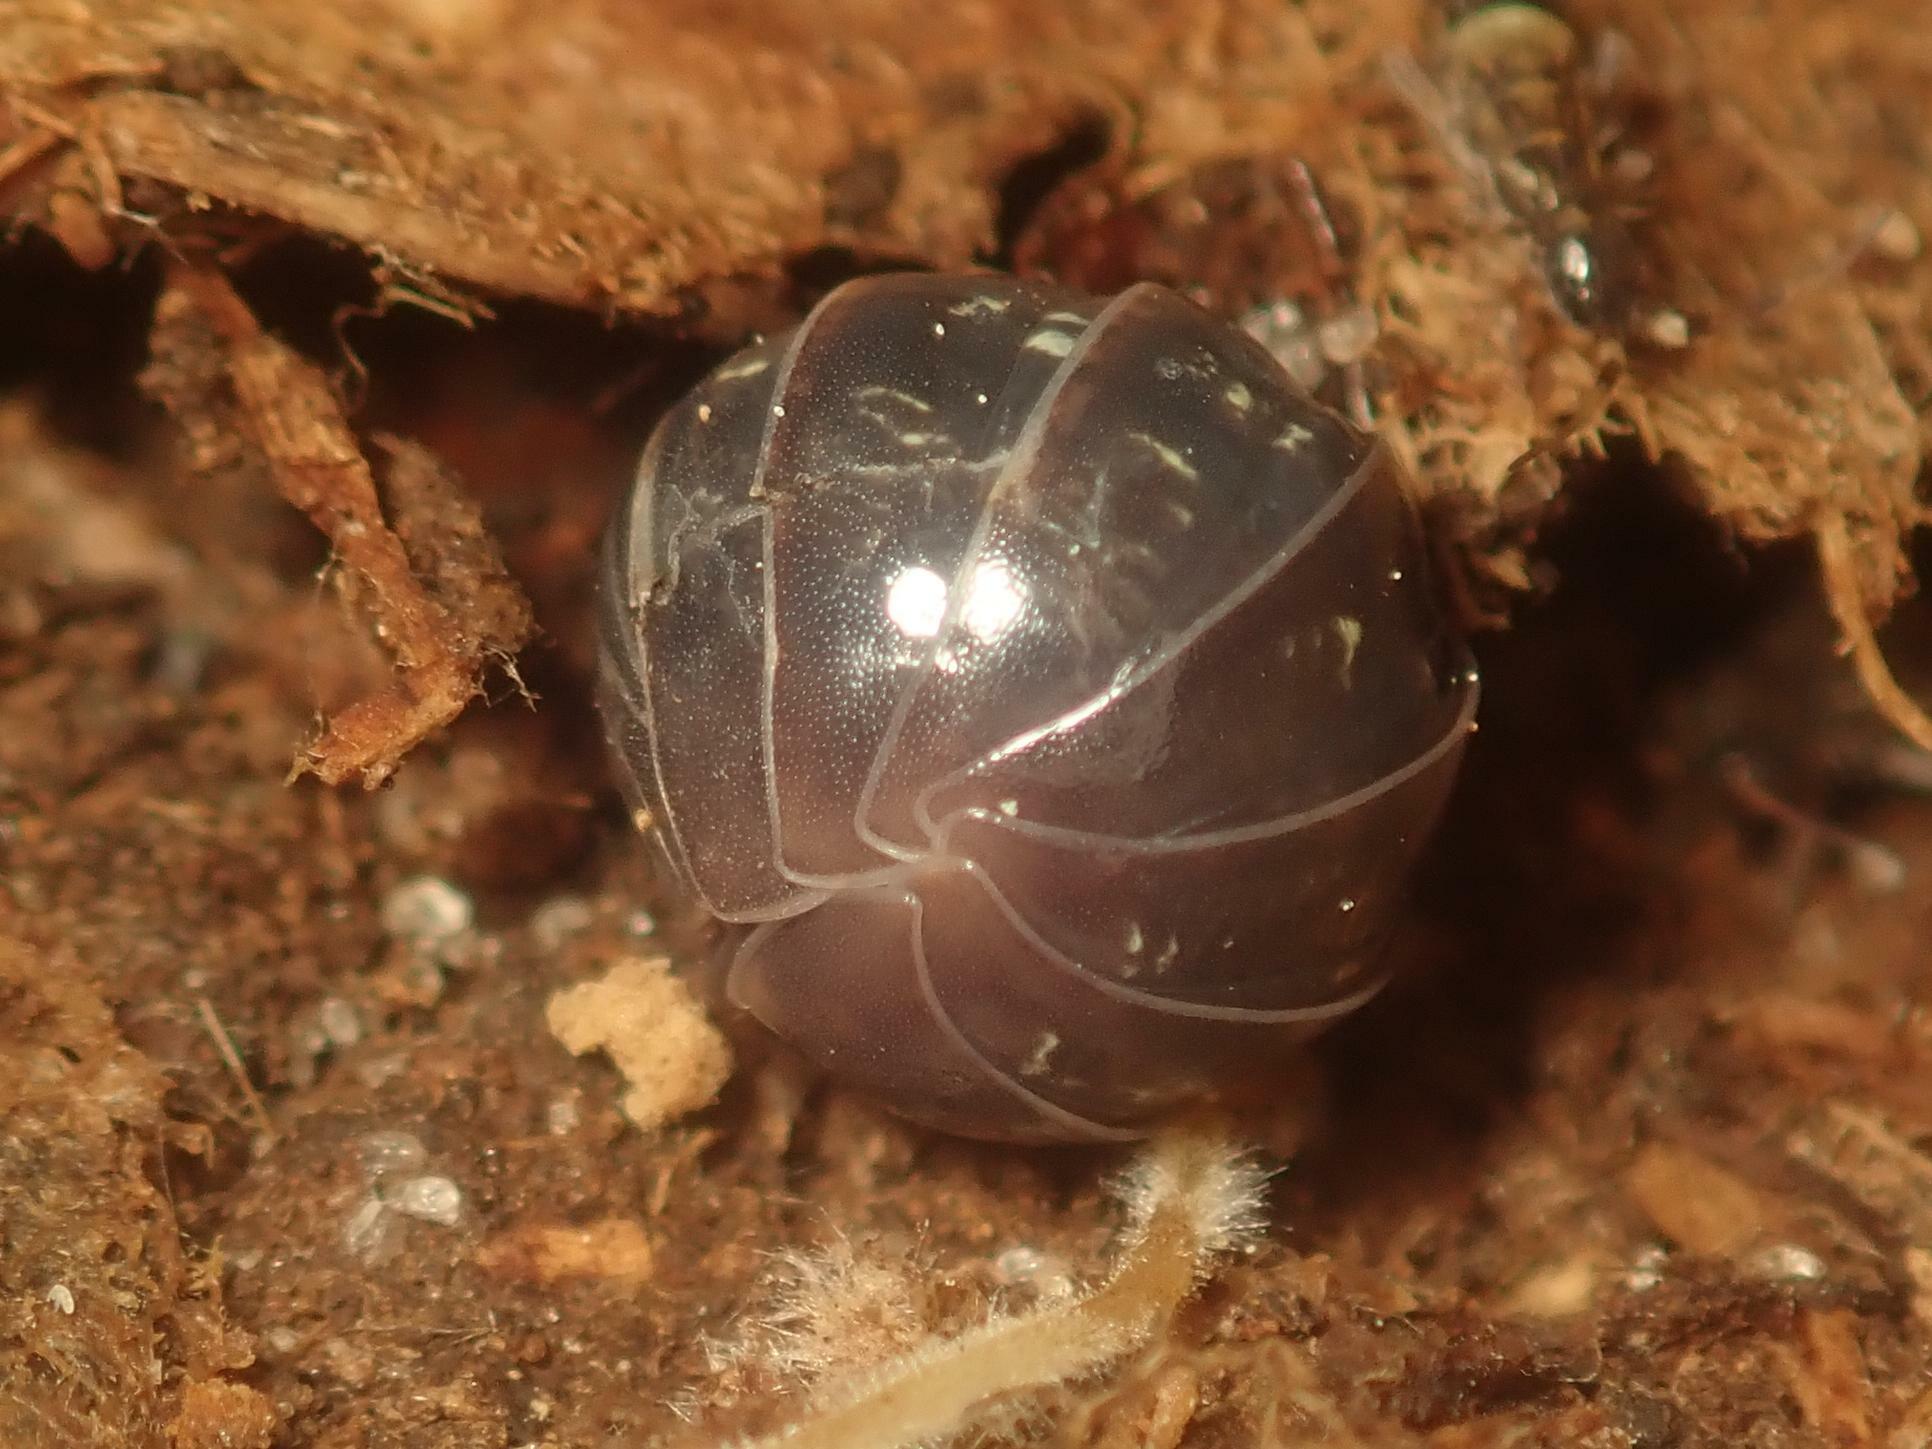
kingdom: Animalia
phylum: Arthropoda
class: Malacostraca
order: Isopoda
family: Armadillidiidae
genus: Armadillidium
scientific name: Armadillidium vulgare
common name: Common pill woodlouse
